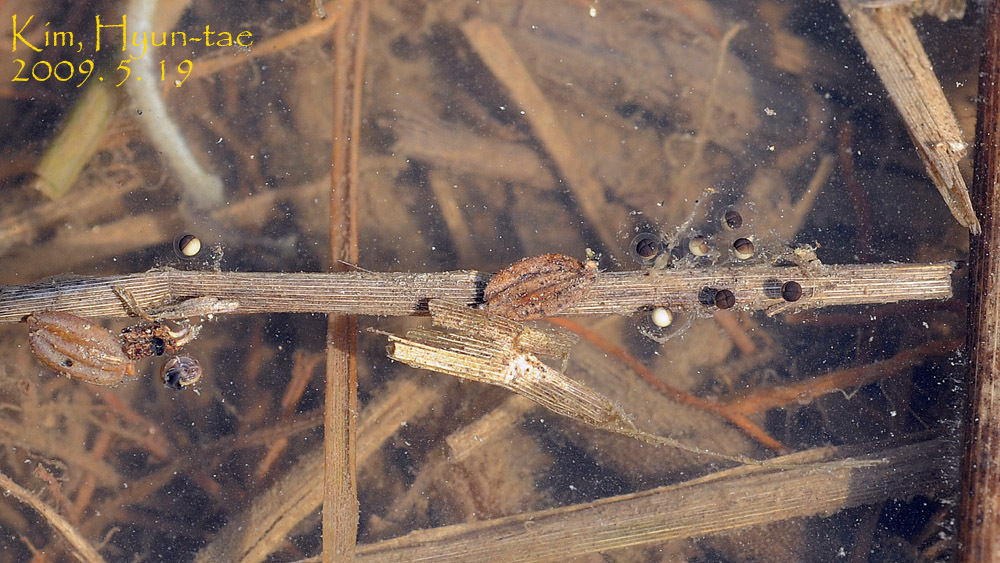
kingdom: Animalia
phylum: Chordata
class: Amphibia
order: Anura
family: Hylidae
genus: Dryophytes
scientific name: Dryophytes japonicus
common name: Japanese treefrog
